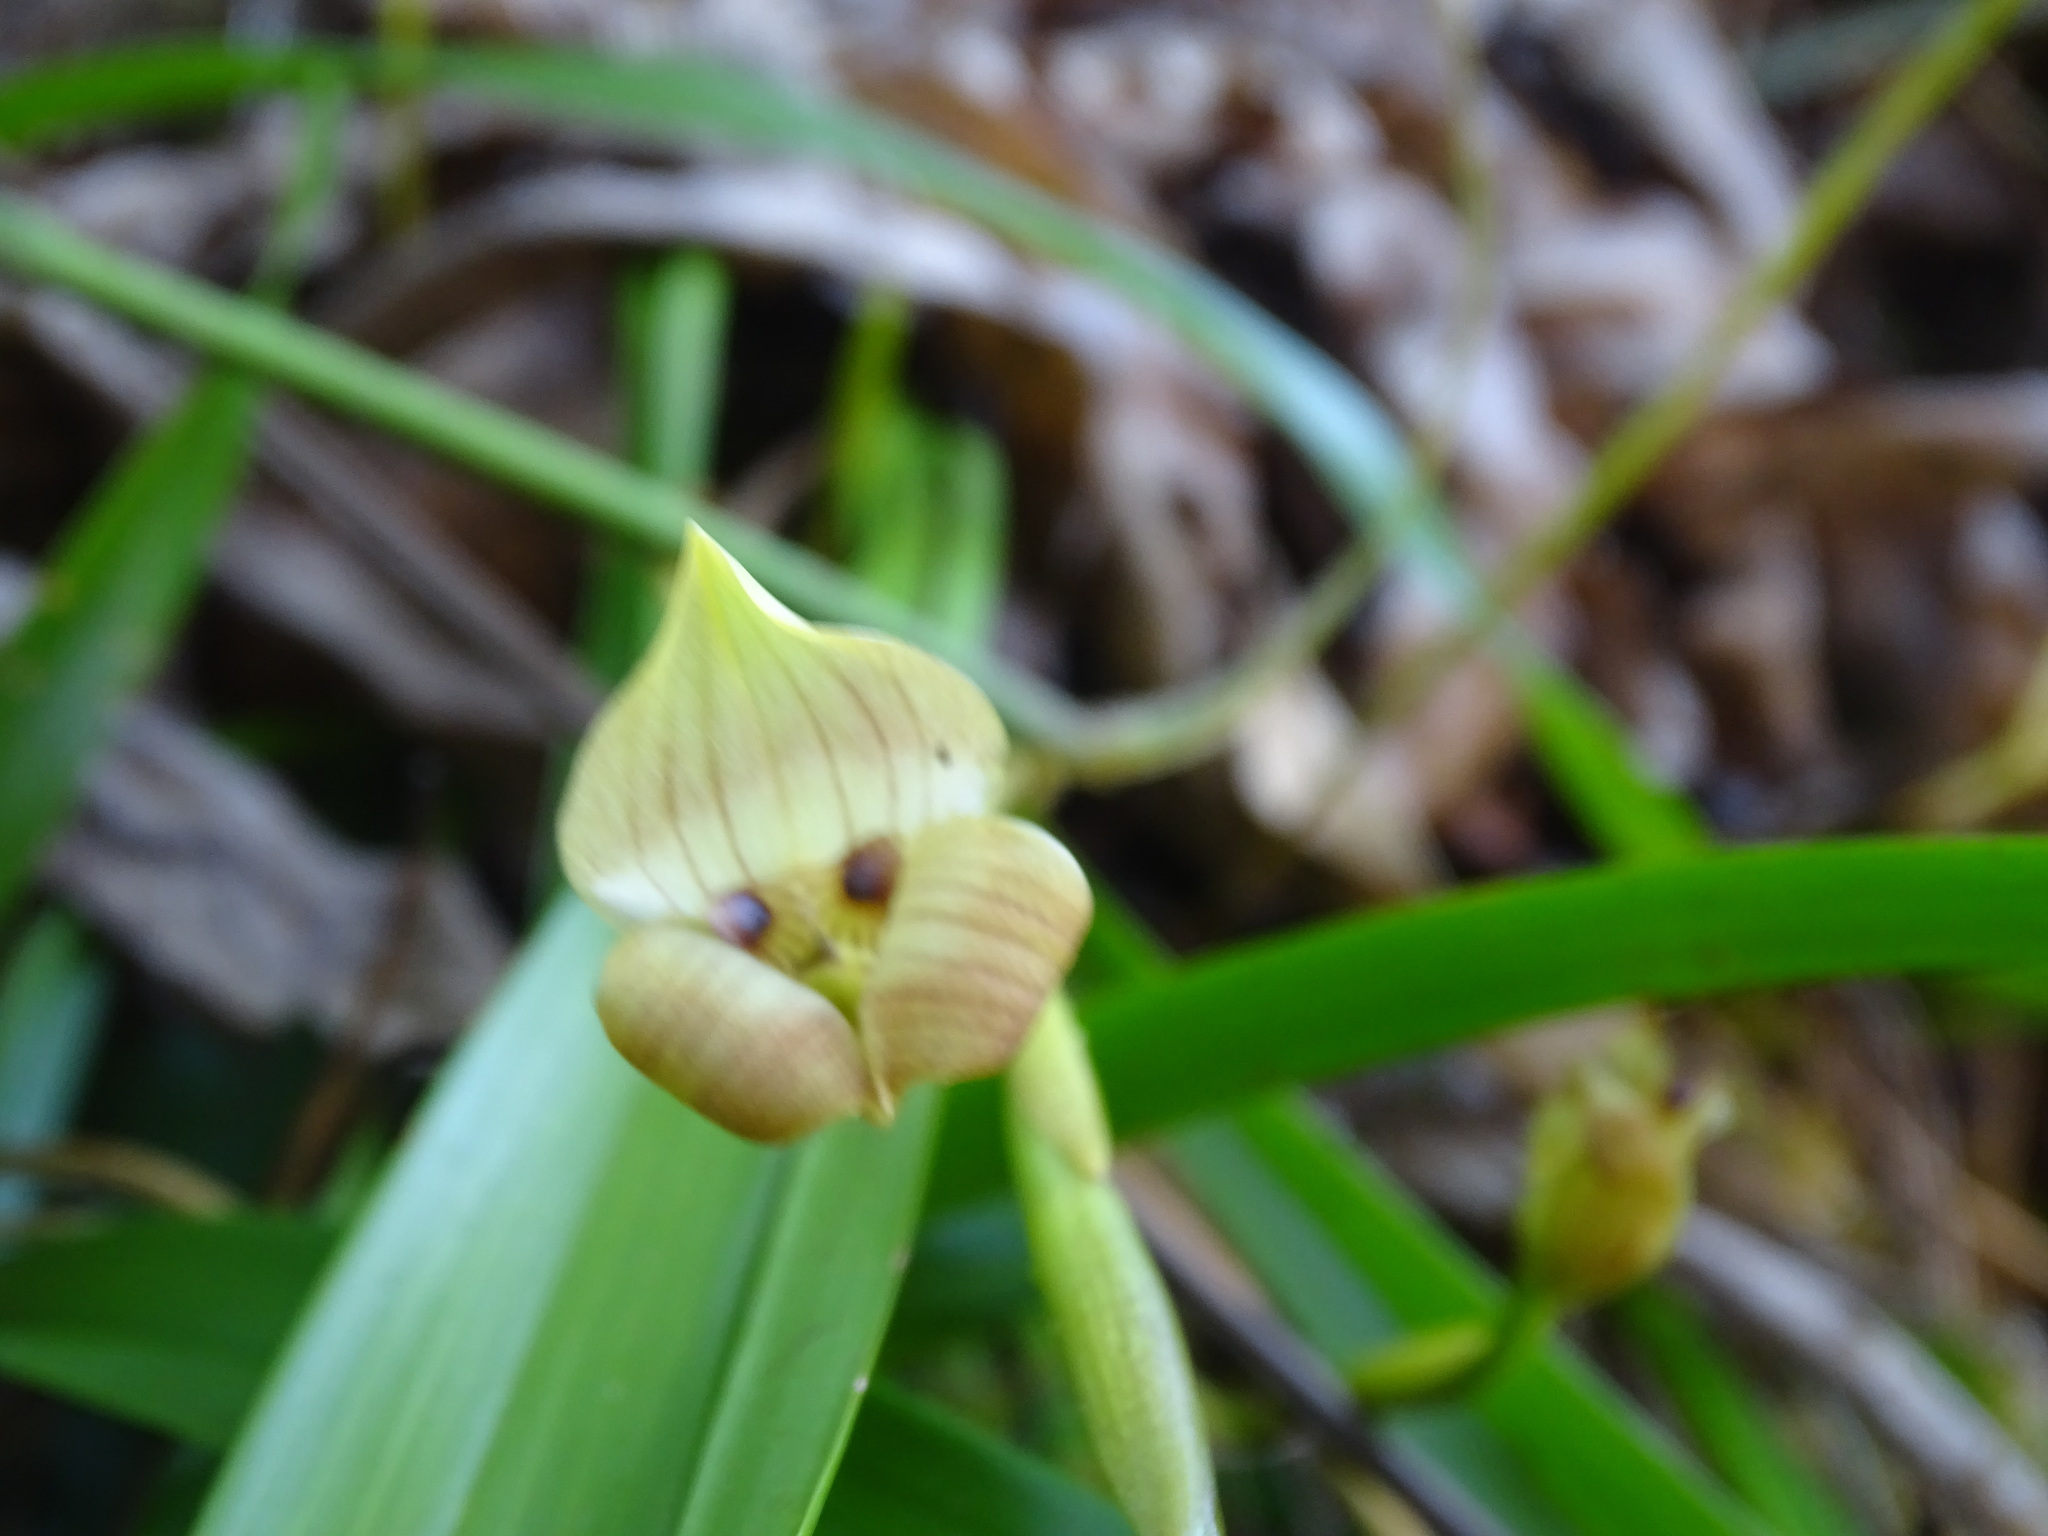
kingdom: Plantae
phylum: Tracheophyta
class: Liliopsida
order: Asparagales
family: Orchidaceae
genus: Maxillaria
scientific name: Maxillaria egertoniana
